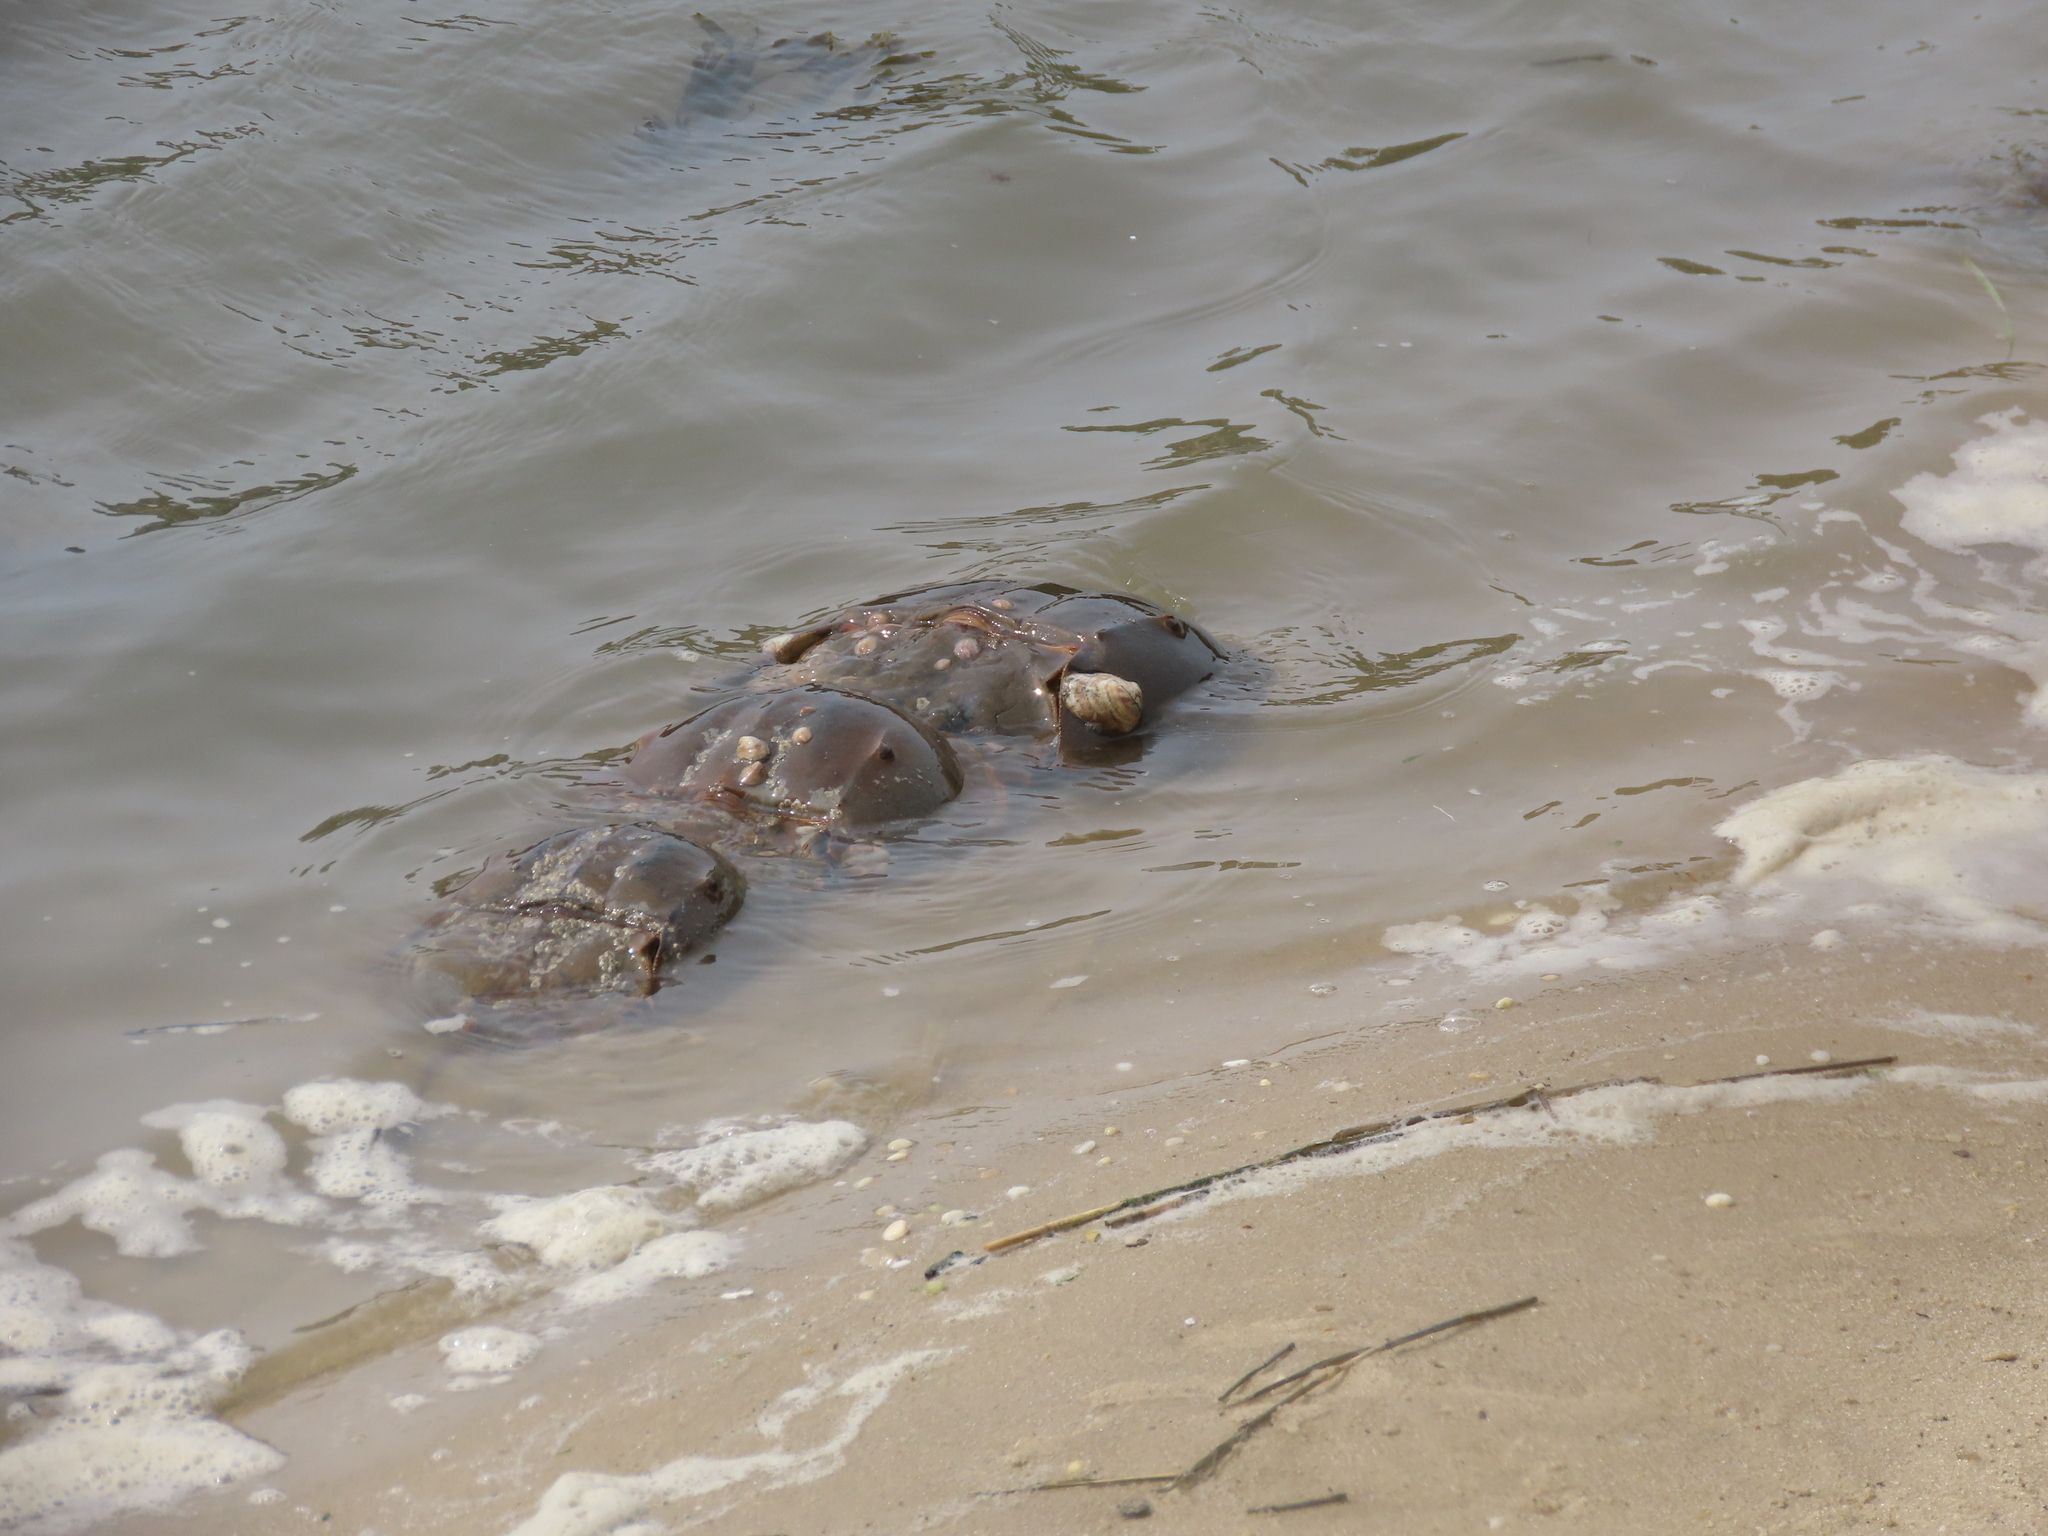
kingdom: Animalia
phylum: Arthropoda
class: Merostomata
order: Xiphosurida
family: Limulidae
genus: Limulus
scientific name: Limulus polyphemus
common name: Horseshoe crab
